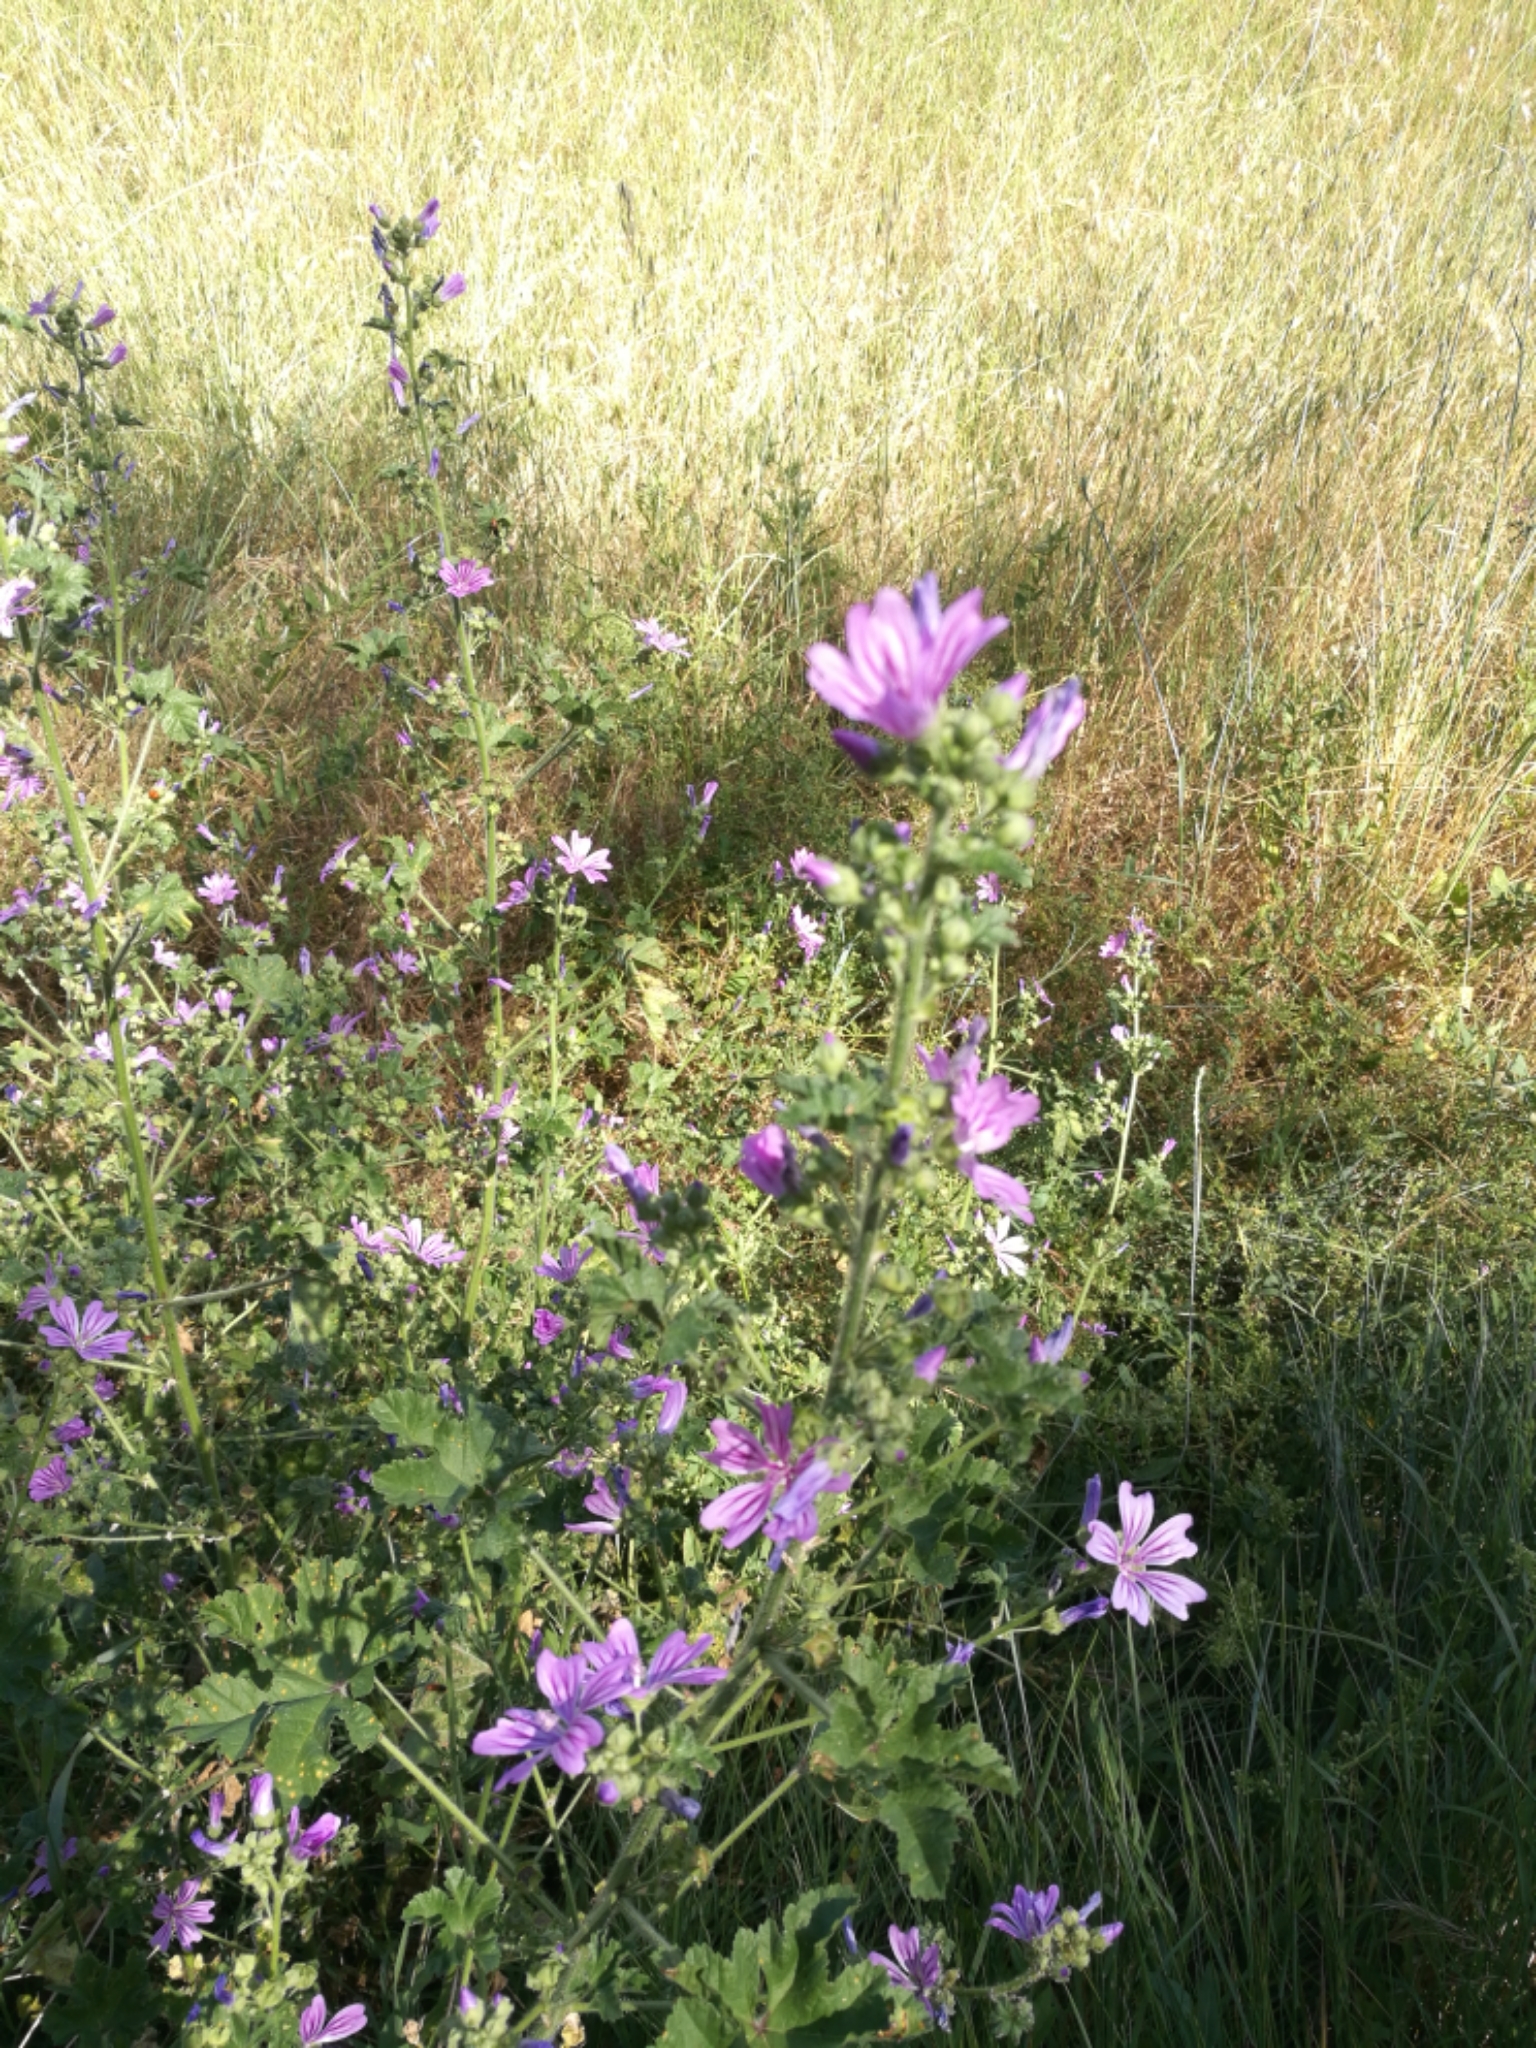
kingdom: Plantae
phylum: Tracheophyta
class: Magnoliopsida
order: Malvales
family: Malvaceae
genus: Malva
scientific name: Malva sylvestris
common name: Common mallow
